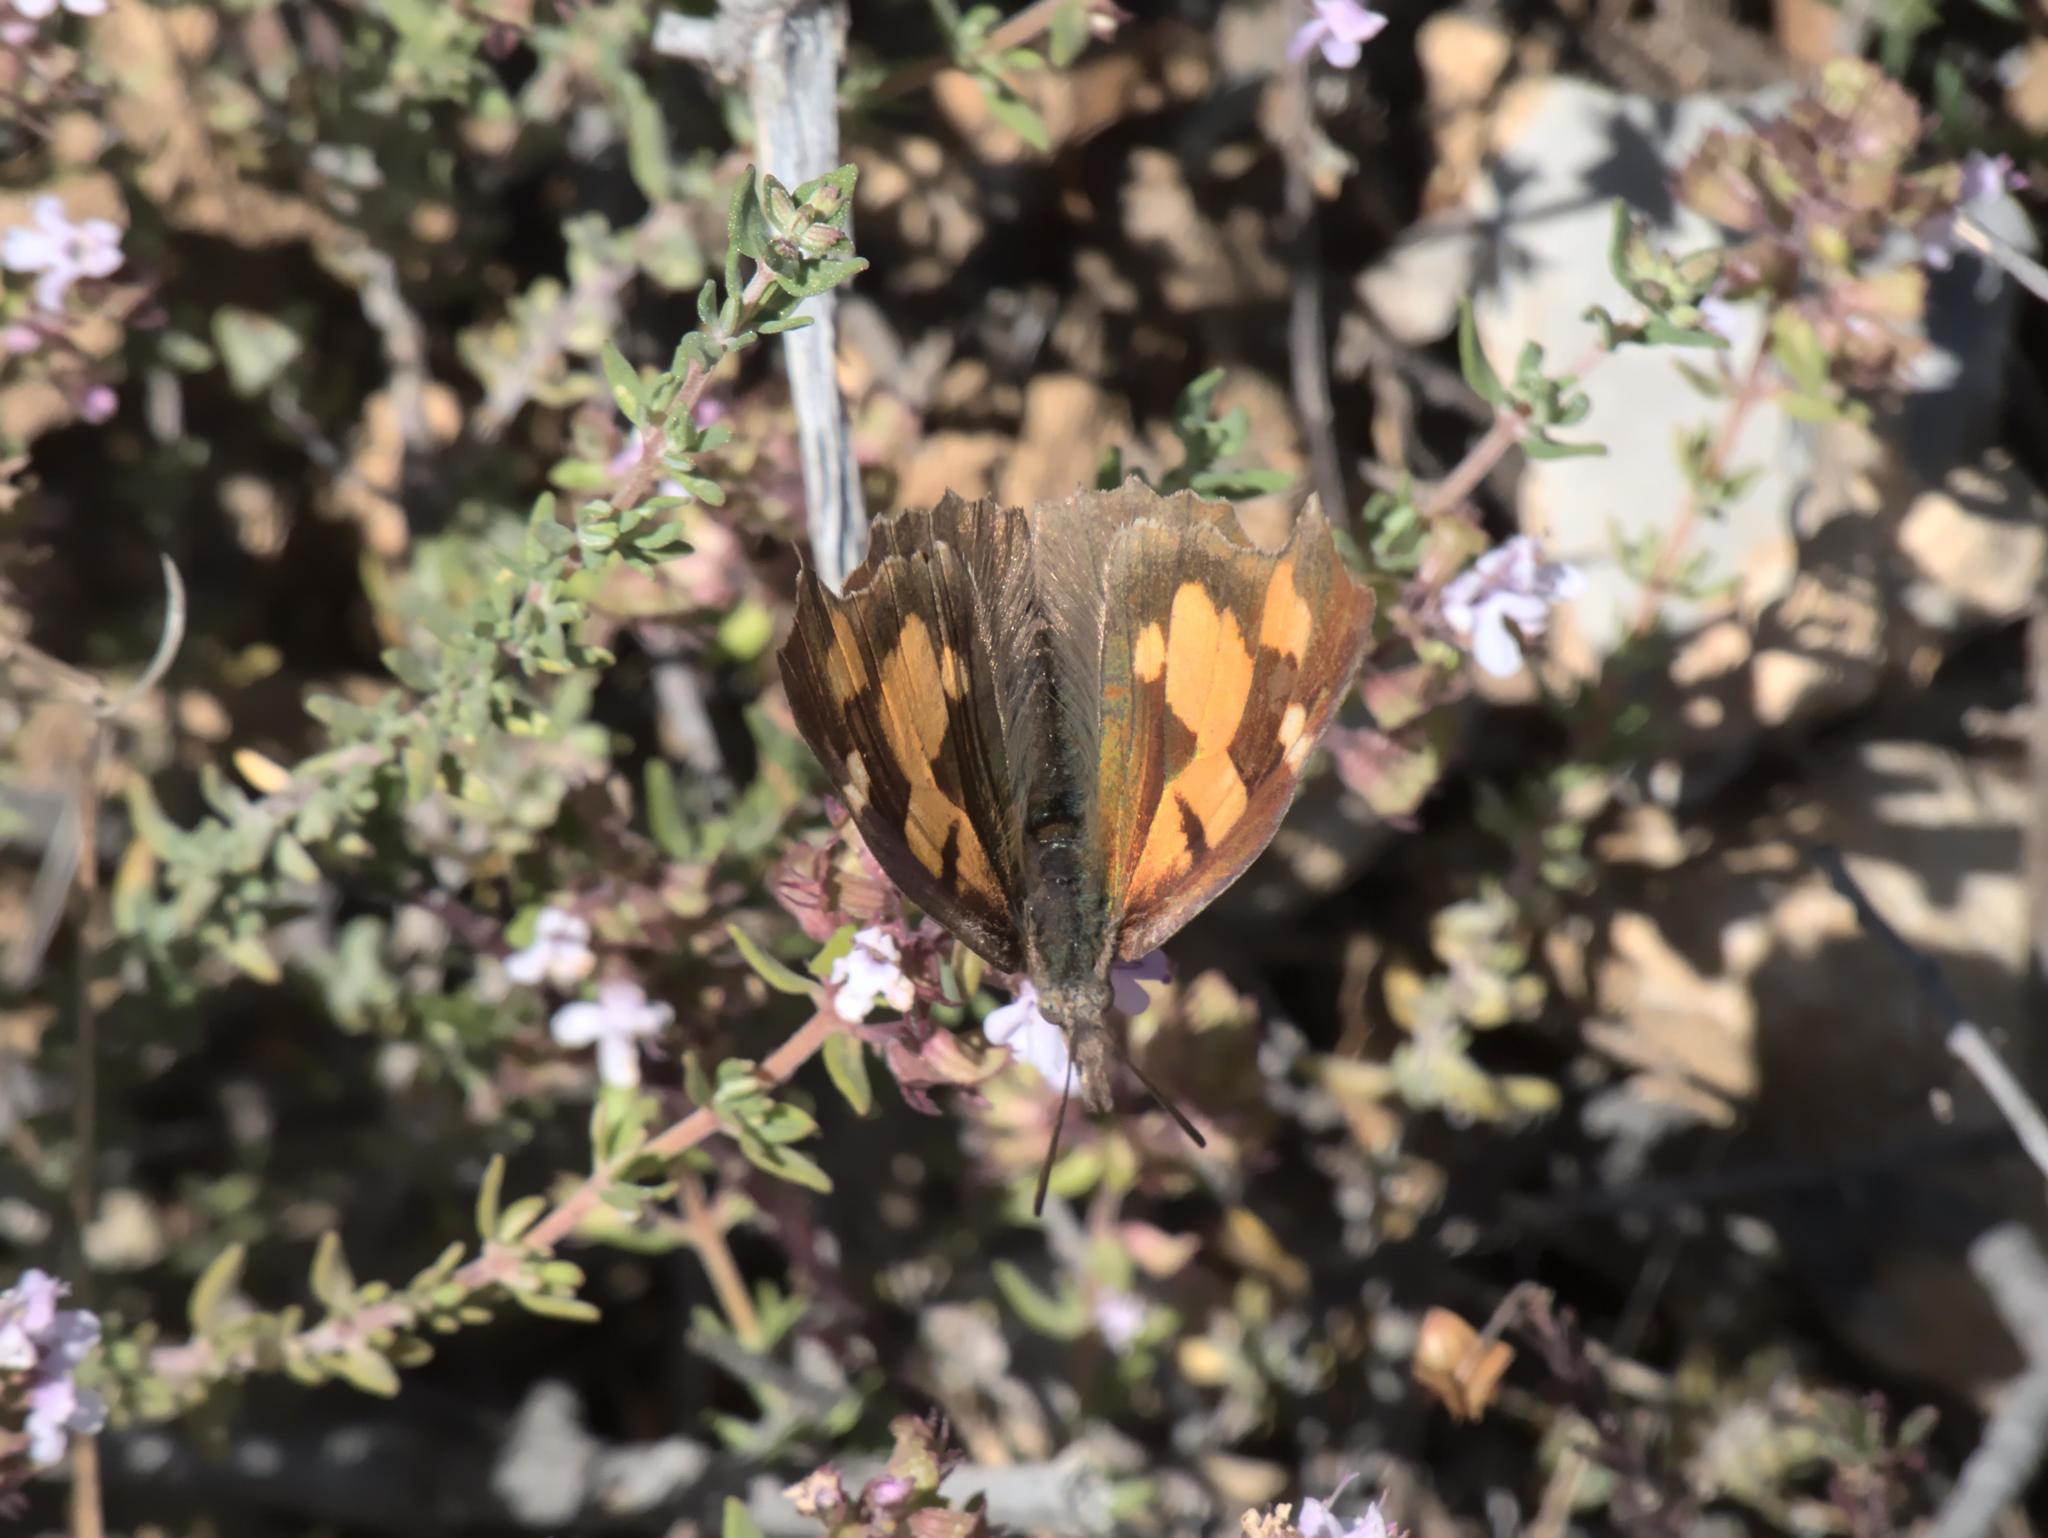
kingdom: Animalia
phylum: Arthropoda
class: Insecta
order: Lepidoptera
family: Nymphalidae
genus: Libythea
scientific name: Libythea celtis
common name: Nettle-tree butterfly
